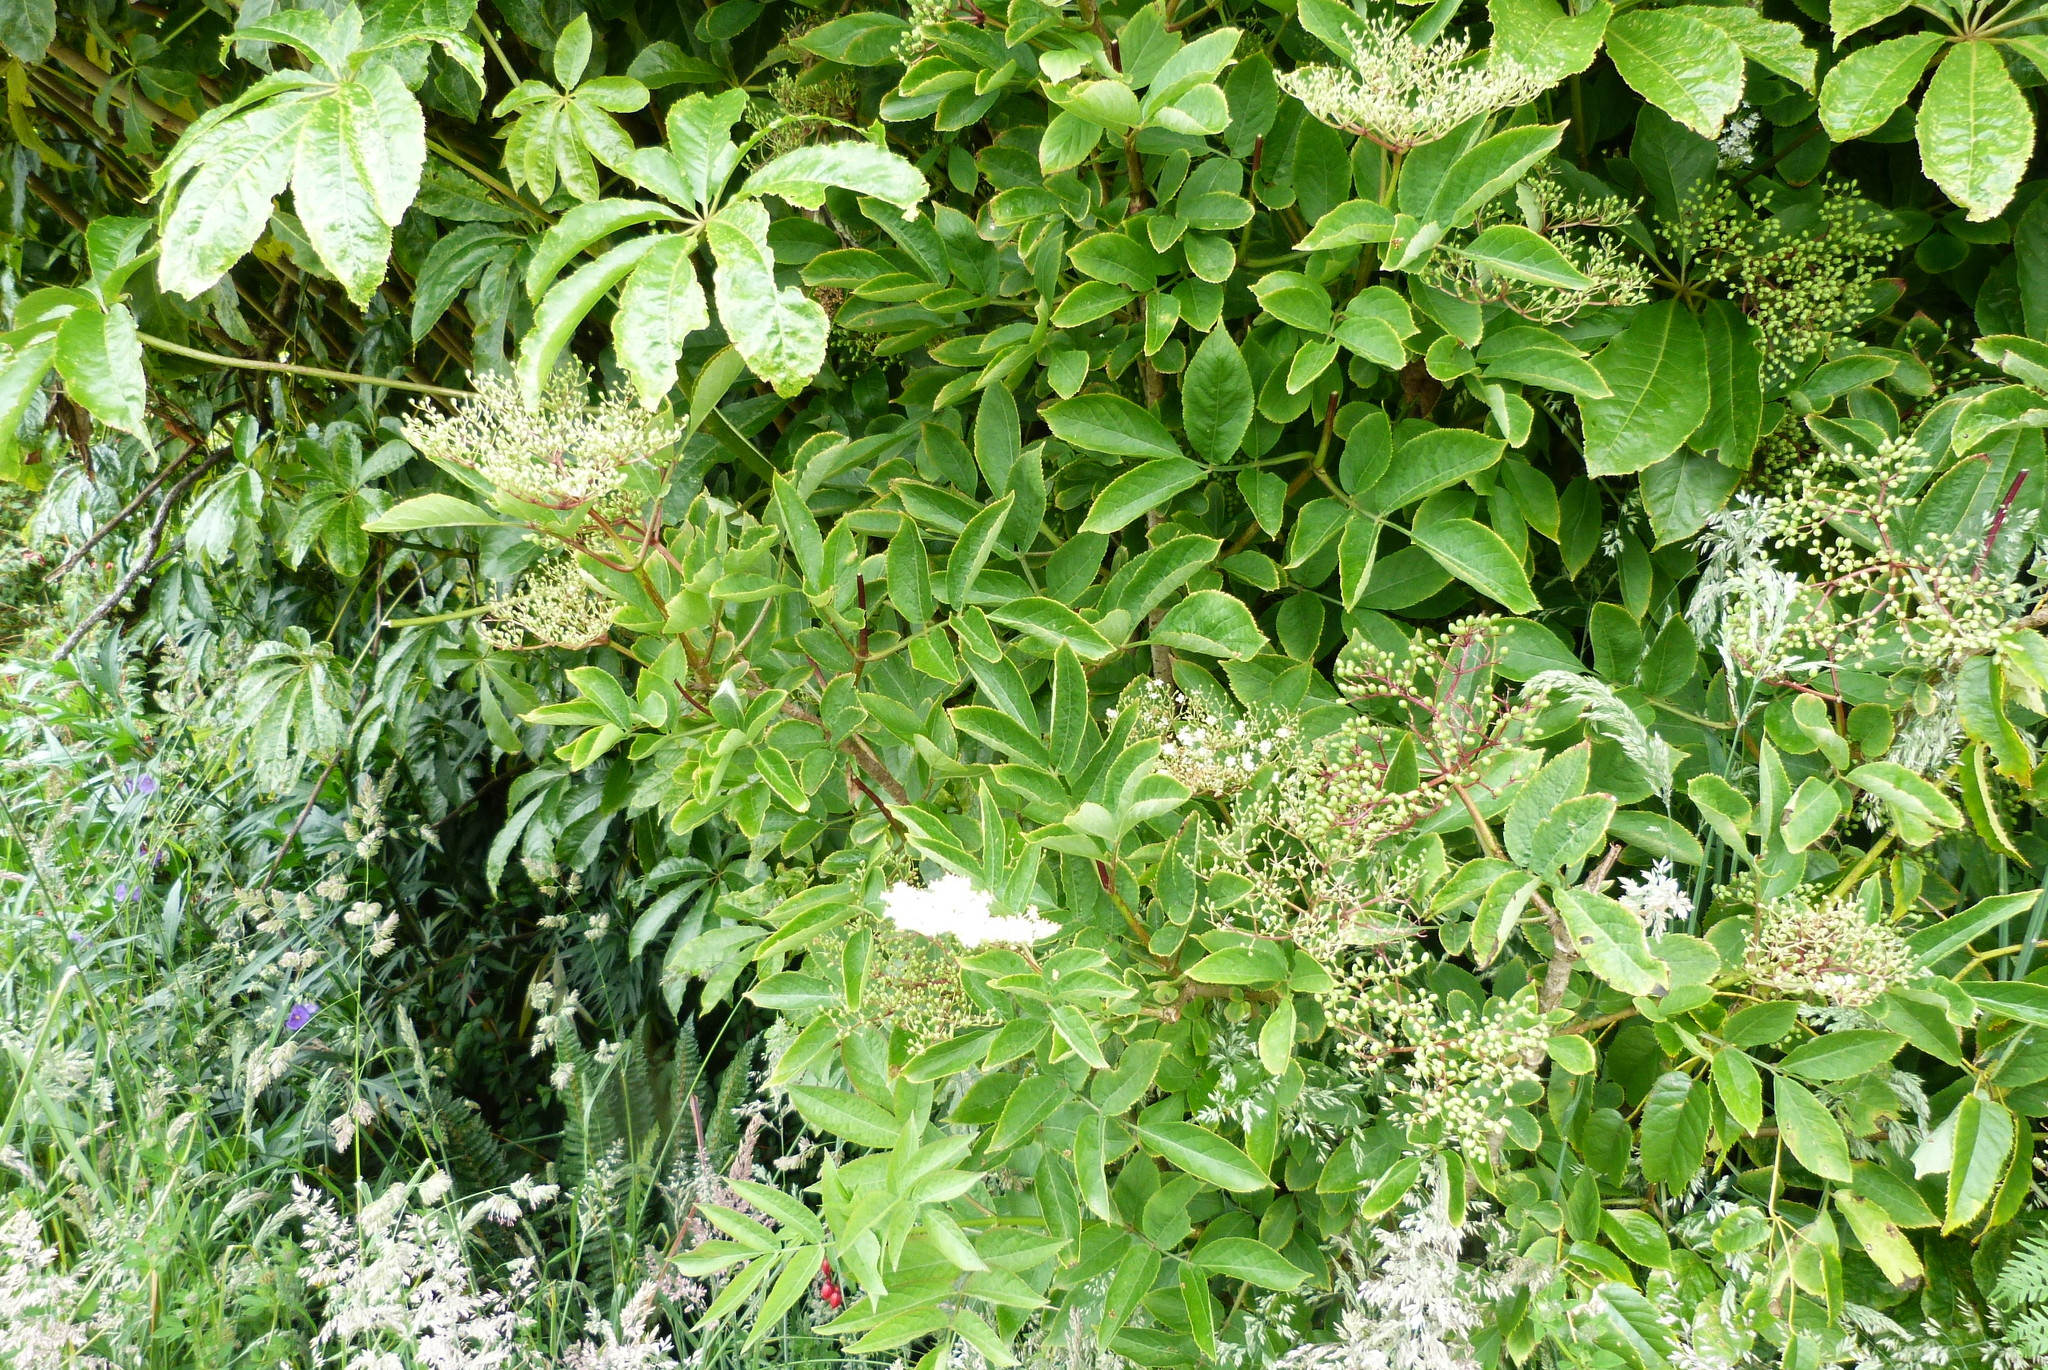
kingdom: Plantae
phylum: Tracheophyta
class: Magnoliopsida
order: Dipsacales
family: Viburnaceae
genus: Sambucus
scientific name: Sambucus nigra
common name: Elder
